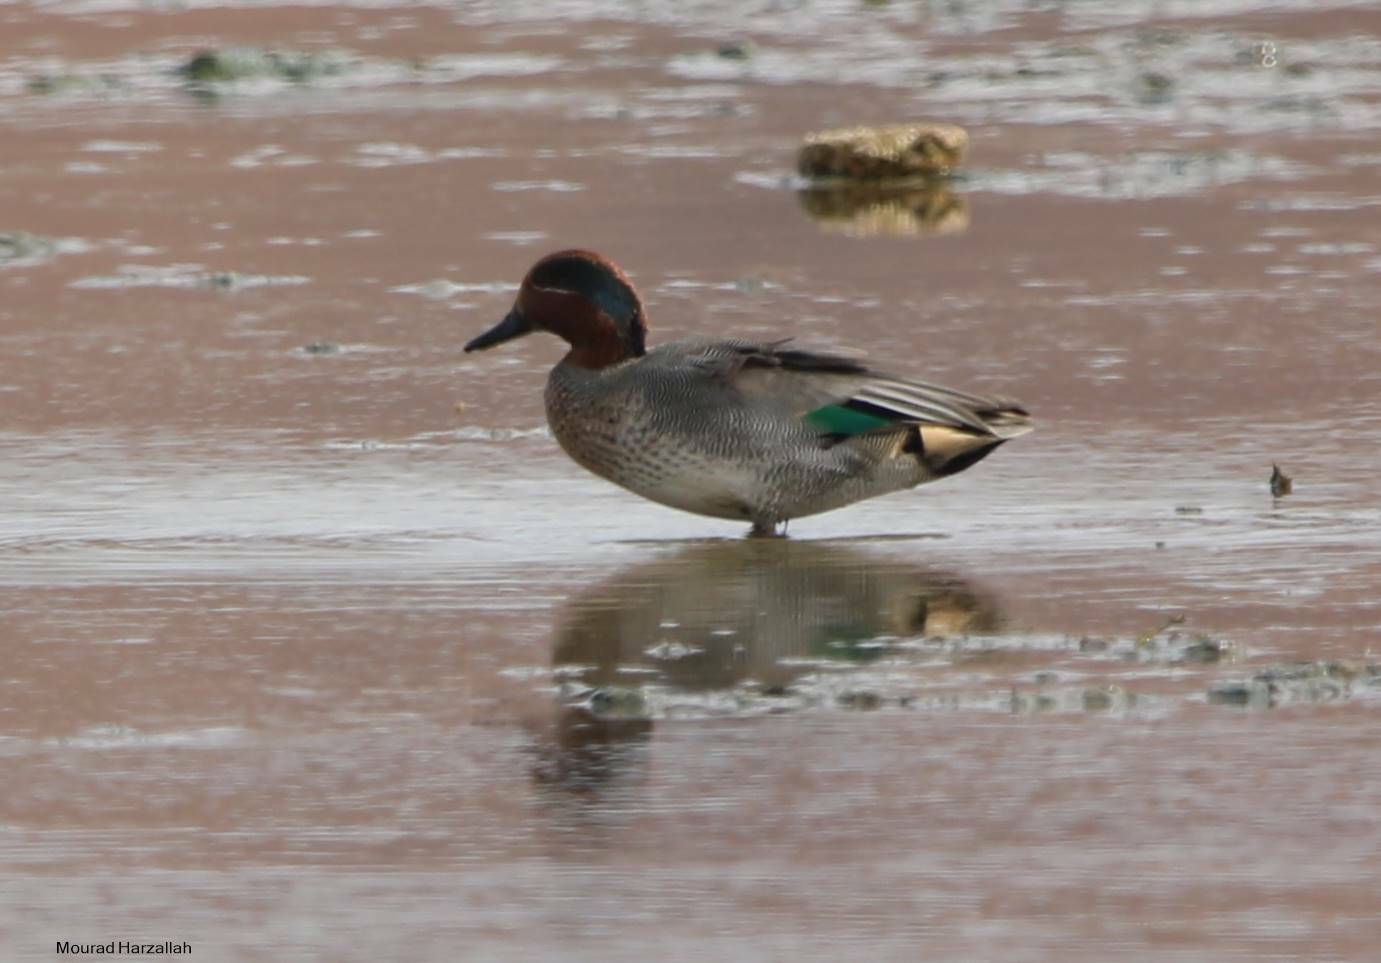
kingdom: Animalia
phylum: Chordata
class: Aves
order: Anseriformes
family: Anatidae
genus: Anas
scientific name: Anas crecca
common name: Eurasian teal
